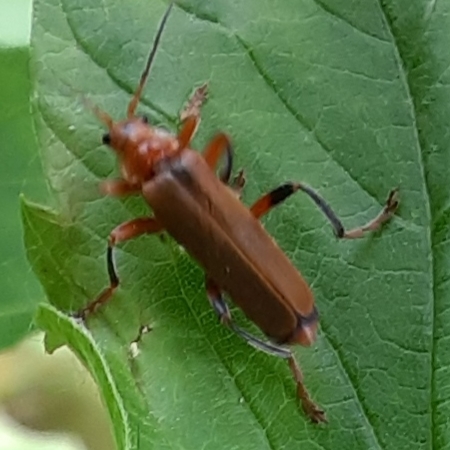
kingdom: Animalia
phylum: Arthropoda
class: Insecta
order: Coleoptera
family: Cantharidae
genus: Cantharis
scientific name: Cantharis livida
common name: Livid soldier beetle
